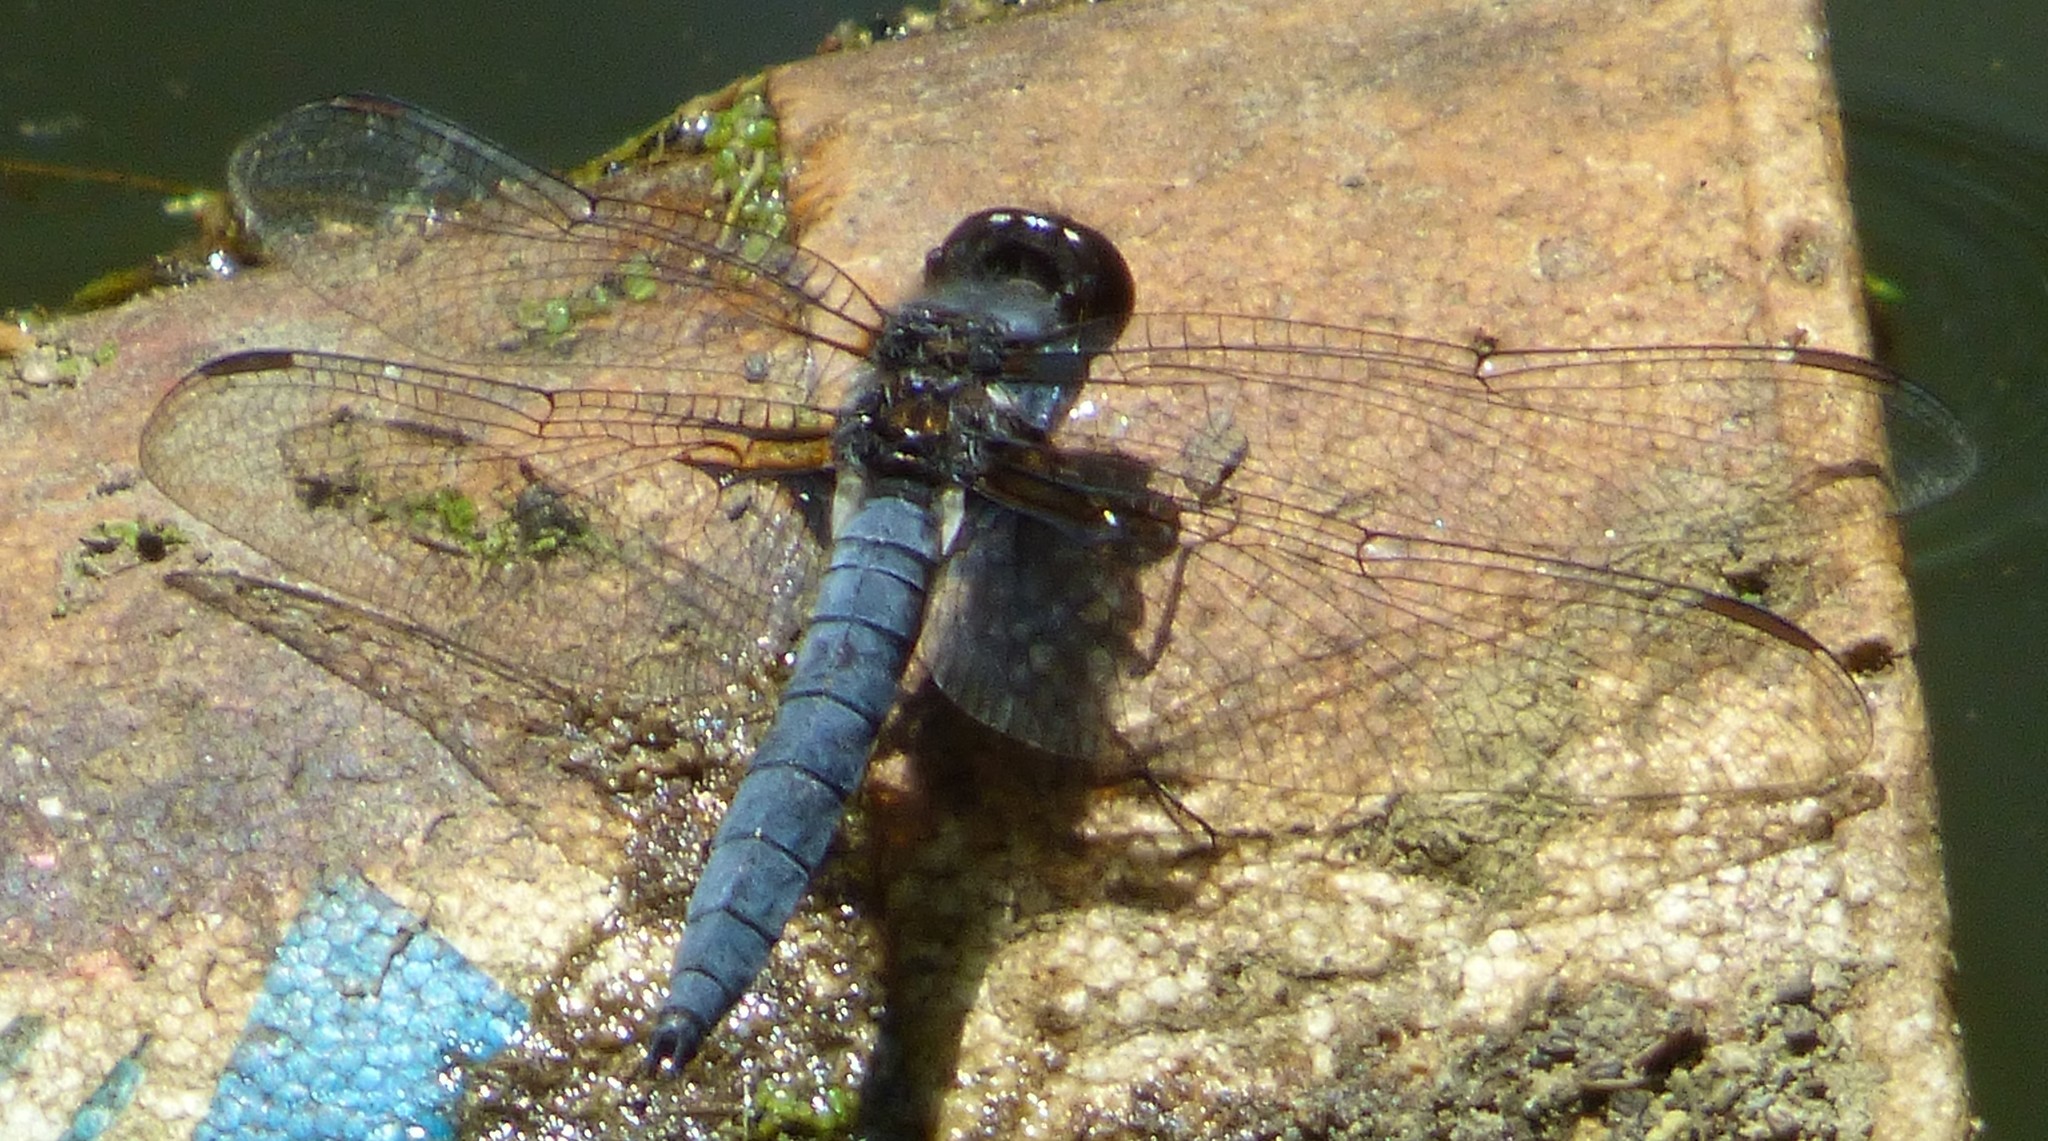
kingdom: Animalia
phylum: Arthropoda
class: Insecta
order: Odonata
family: Libellulidae
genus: Ladona
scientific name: Ladona deplanata
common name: Blue corporal
